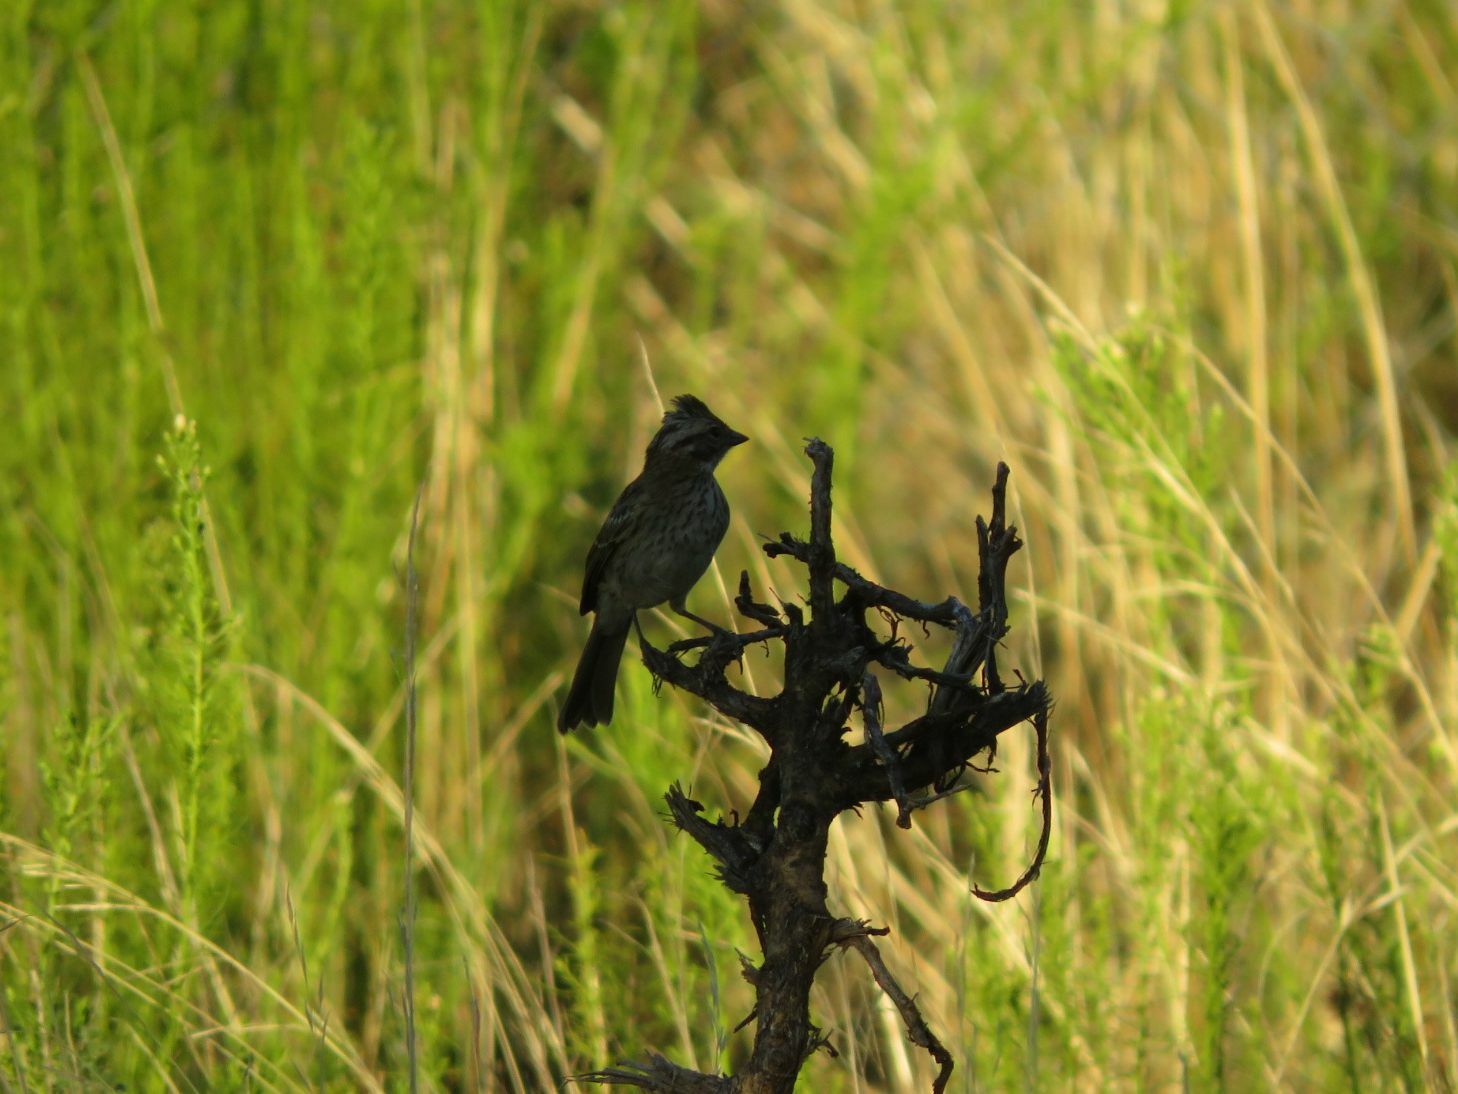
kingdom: Animalia
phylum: Chordata
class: Aves
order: Passeriformes
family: Passerellidae
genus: Zonotrichia
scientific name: Zonotrichia capensis
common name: Rufous-collared sparrow
